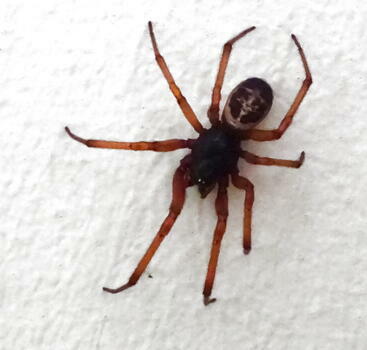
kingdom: Animalia
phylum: Arthropoda
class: Arachnida
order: Araneae
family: Theridiidae
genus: Steatoda
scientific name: Steatoda nobilis
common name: Cobweb weaver
